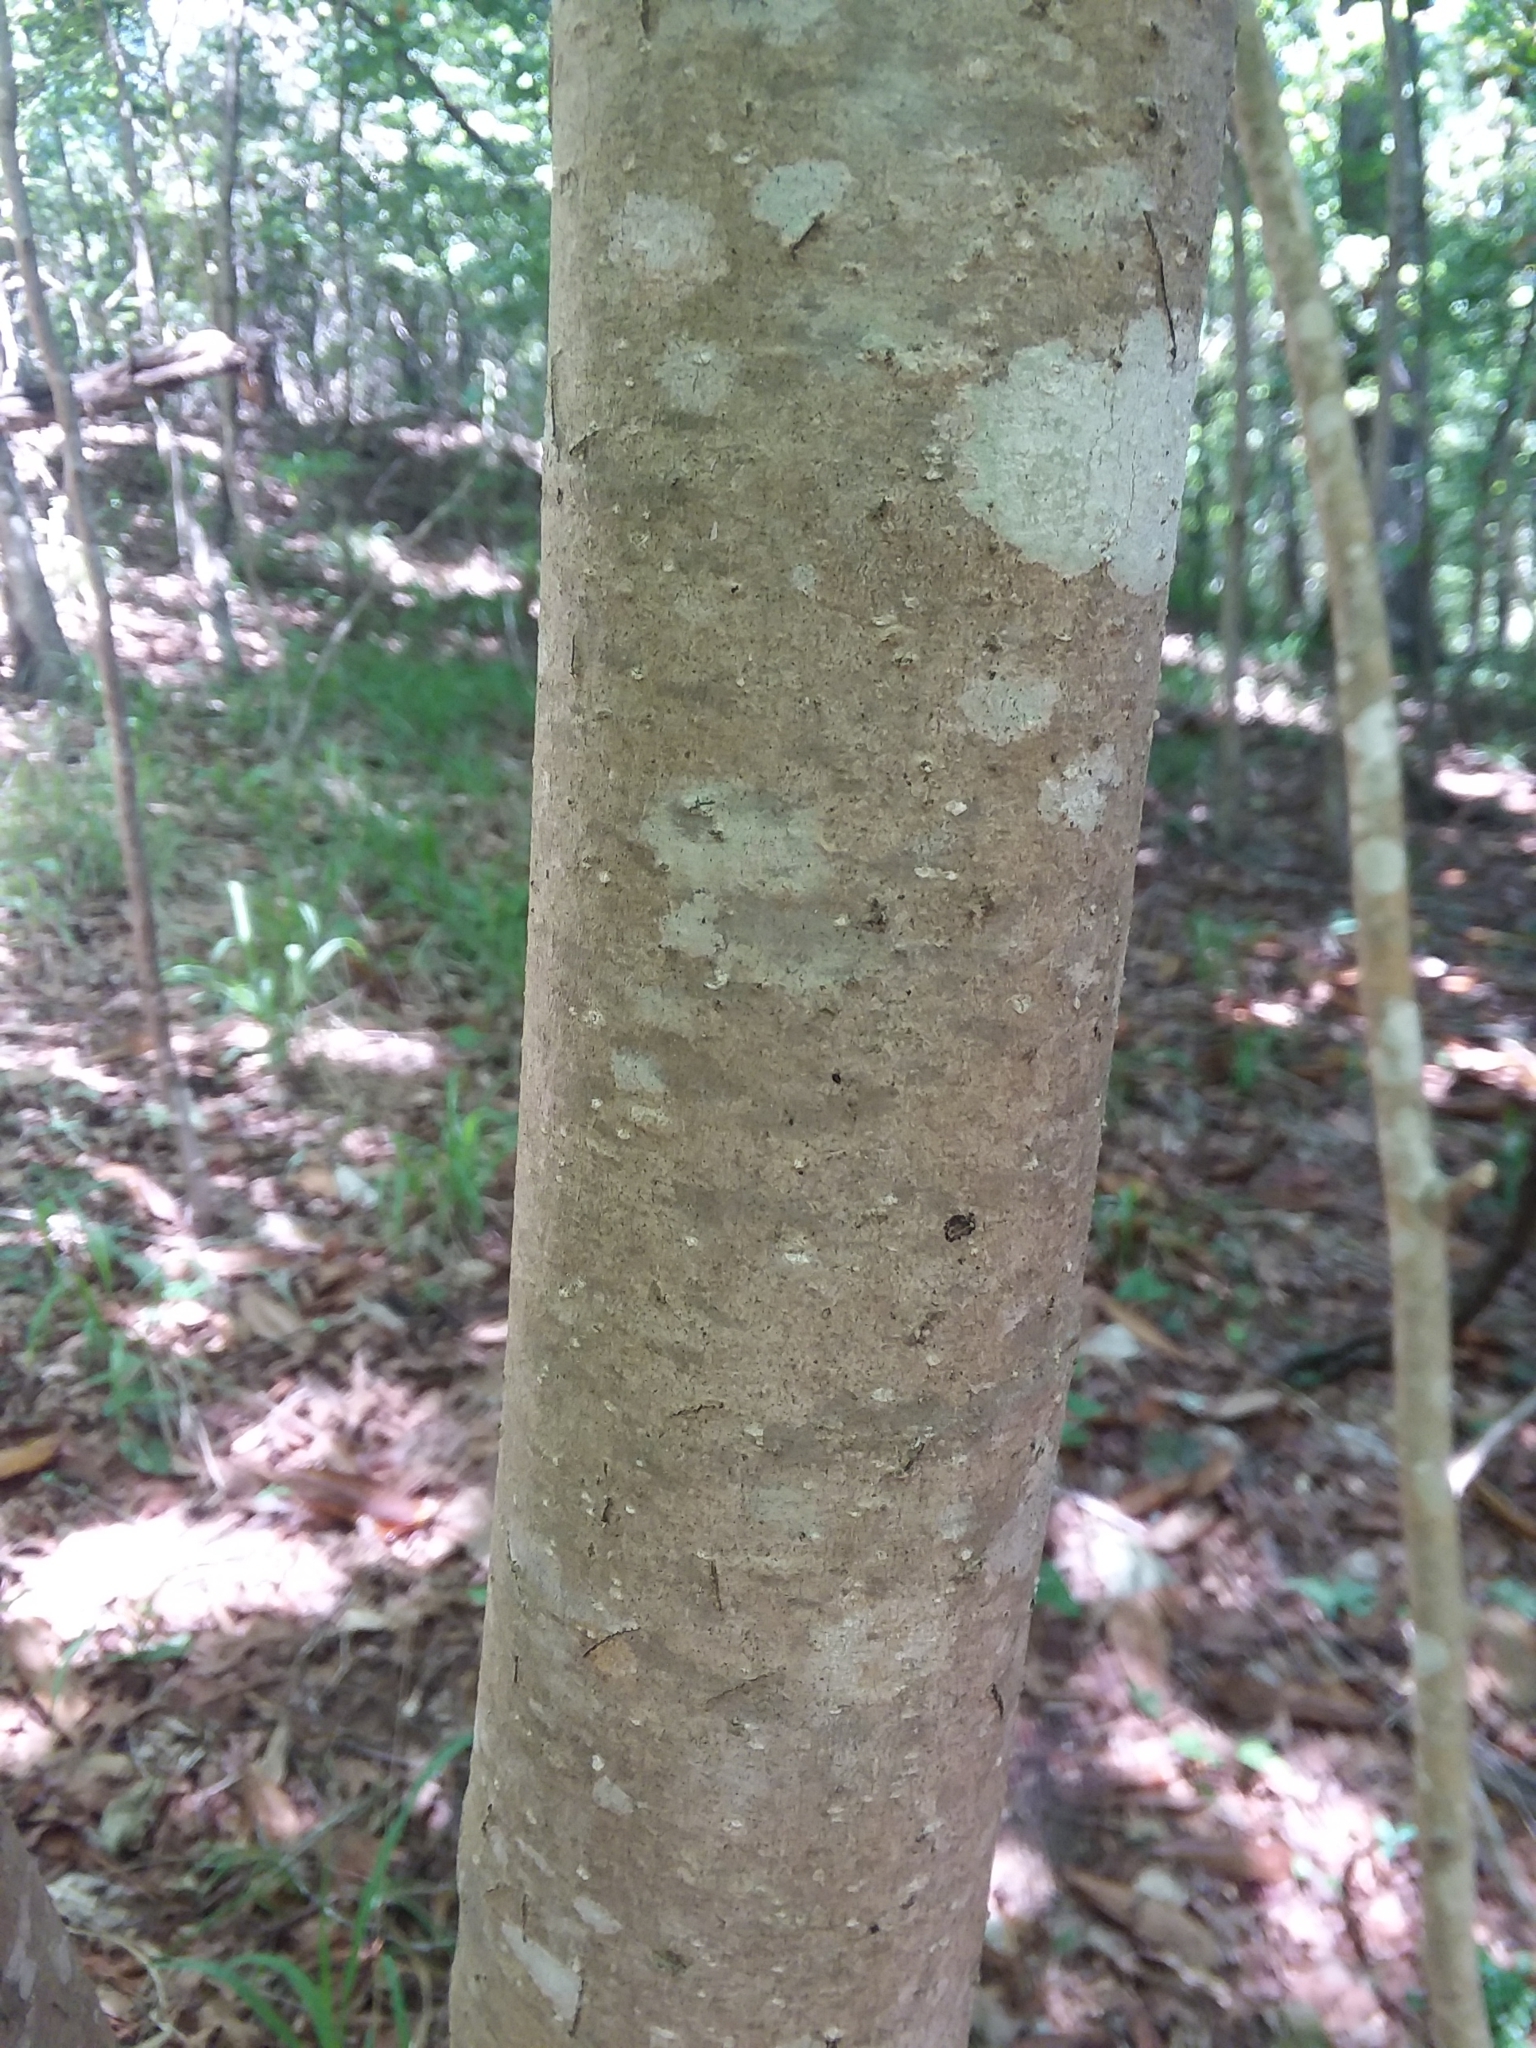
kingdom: Plantae
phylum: Tracheophyta
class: Magnoliopsida
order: Magnoliales
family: Magnoliaceae
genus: Magnolia
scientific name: Magnolia fraseri
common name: Fraser's magnolia
